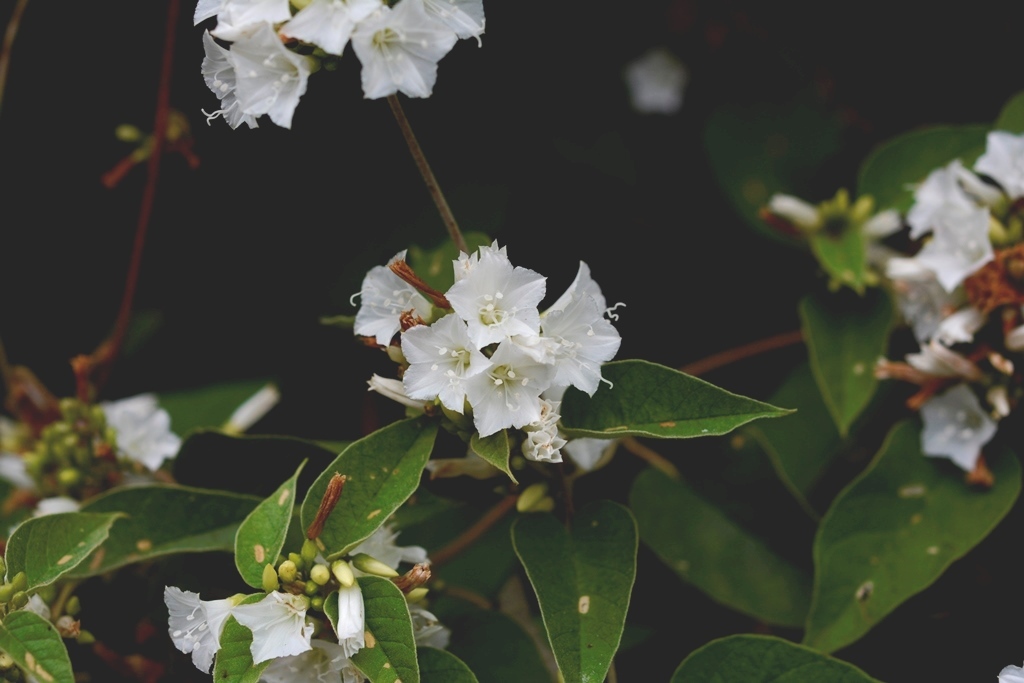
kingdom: Plantae
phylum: Tracheophyta
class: Magnoliopsida
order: Solanales
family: Convolvulaceae
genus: Jacquemontia
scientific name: Jacquemontia nodiflora
